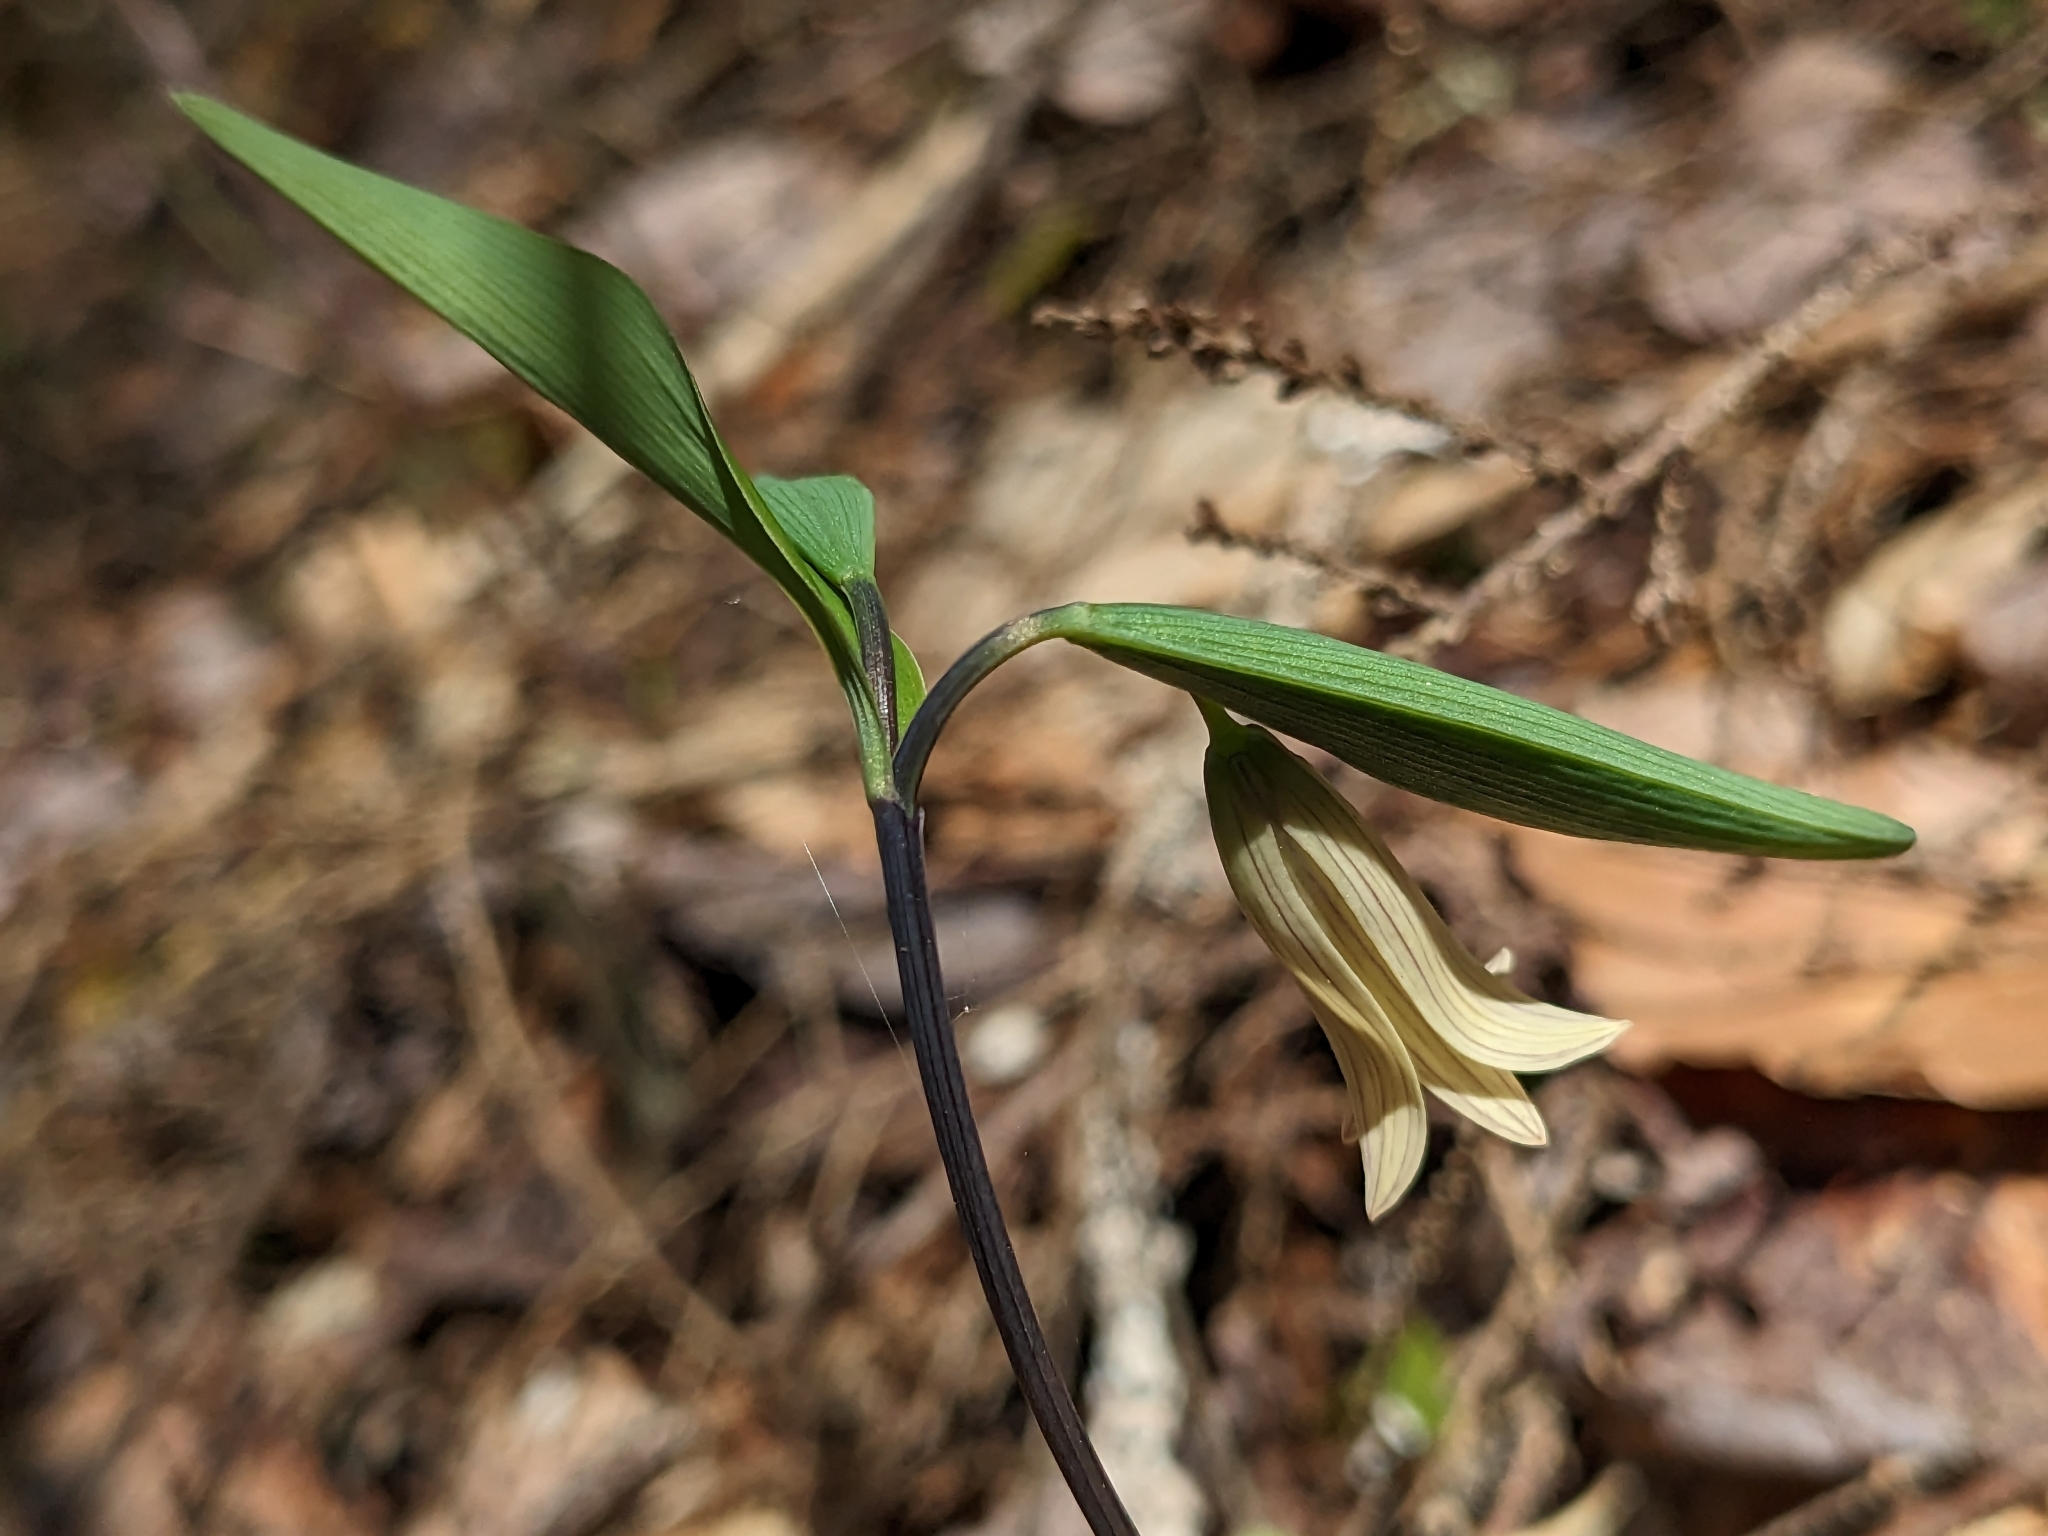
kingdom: Plantae
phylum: Tracheophyta
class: Liliopsida
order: Liliales
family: Colchicaceae
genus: Uvularia
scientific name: Uvularia sessilifolia
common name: Straw-lily
